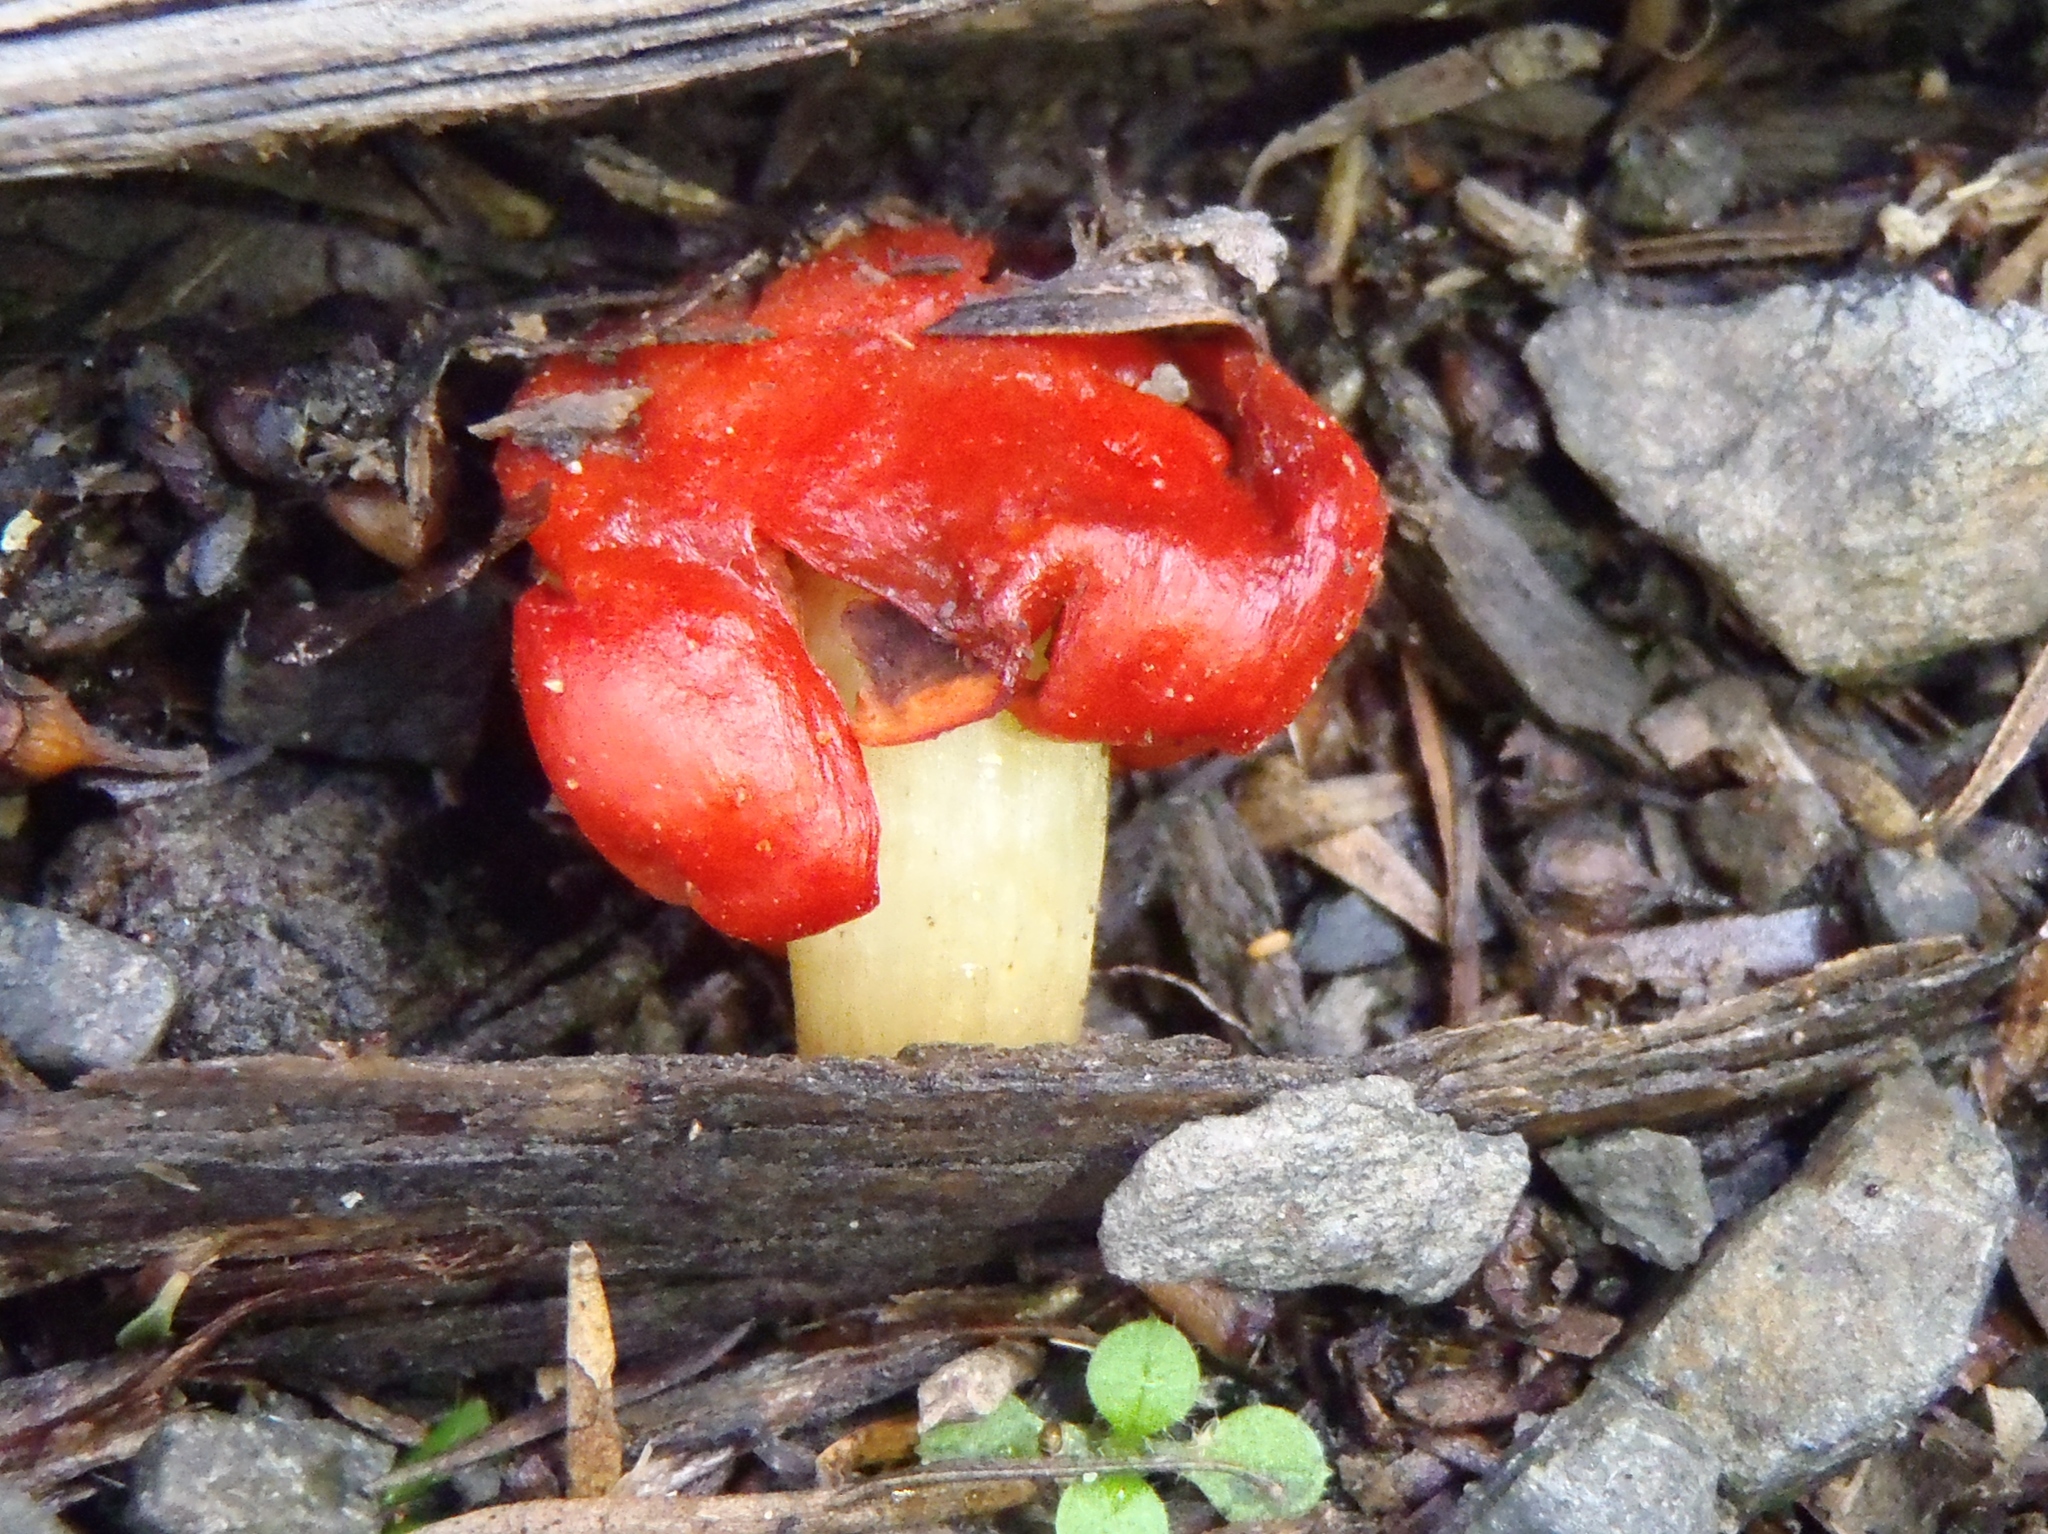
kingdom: Fungi
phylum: Basidiomycota
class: Agaricomycetes
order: Agaricales
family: Strophariaceae
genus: Leratiomyces
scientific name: Leratiomyces erythrocephalus
